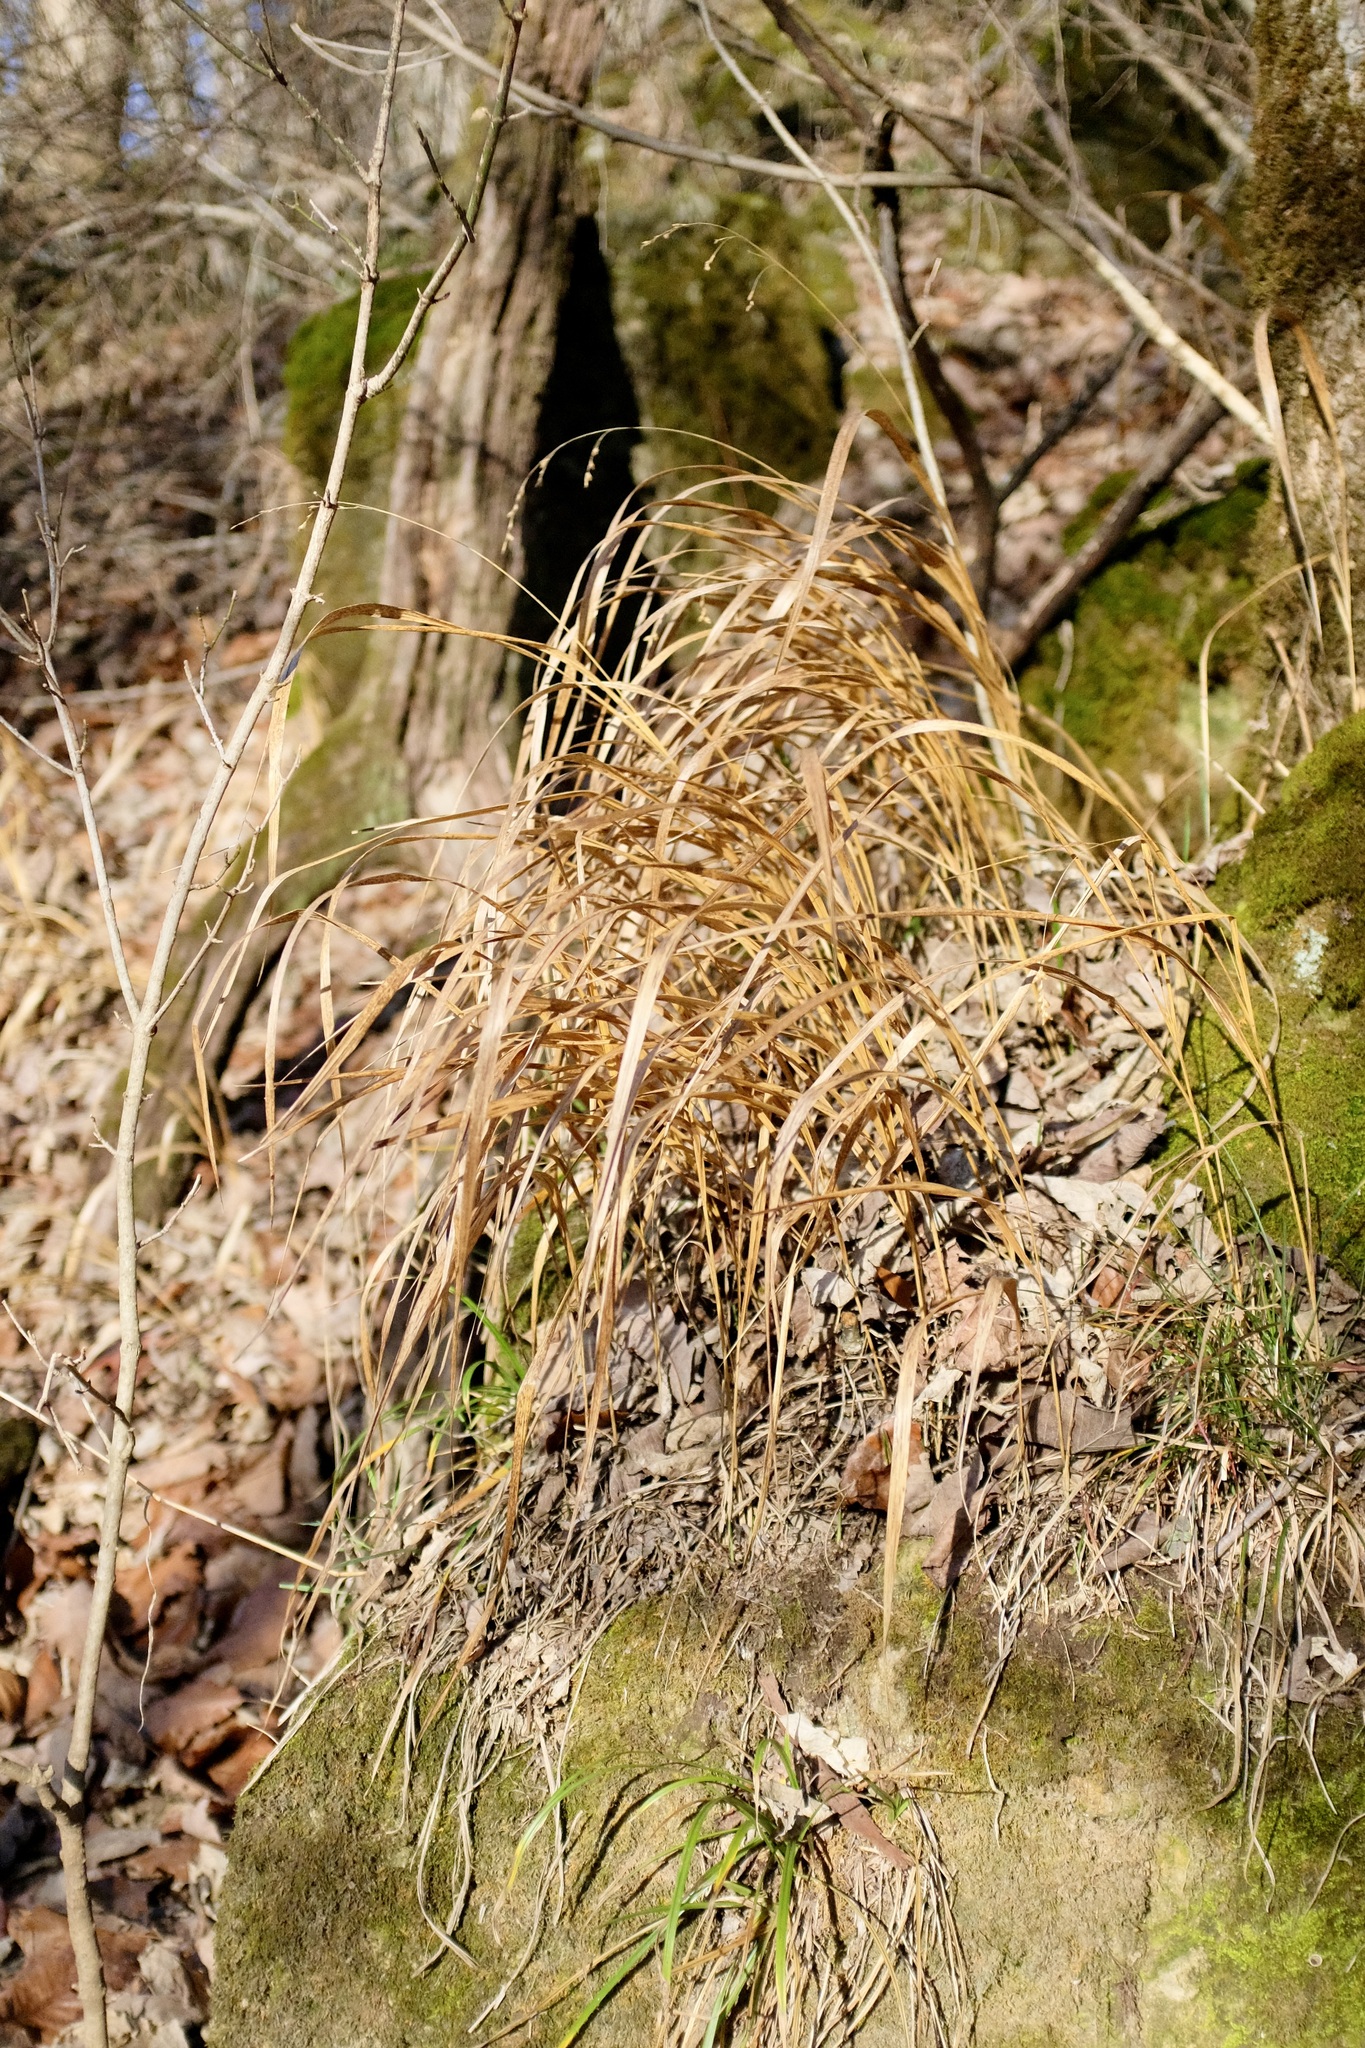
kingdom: Plantae
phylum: Tracheophyta
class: Liliopsida
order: Poales
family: Poaceae
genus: Diarrhena
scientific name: Diarrhena obovata
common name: Beakgrass
